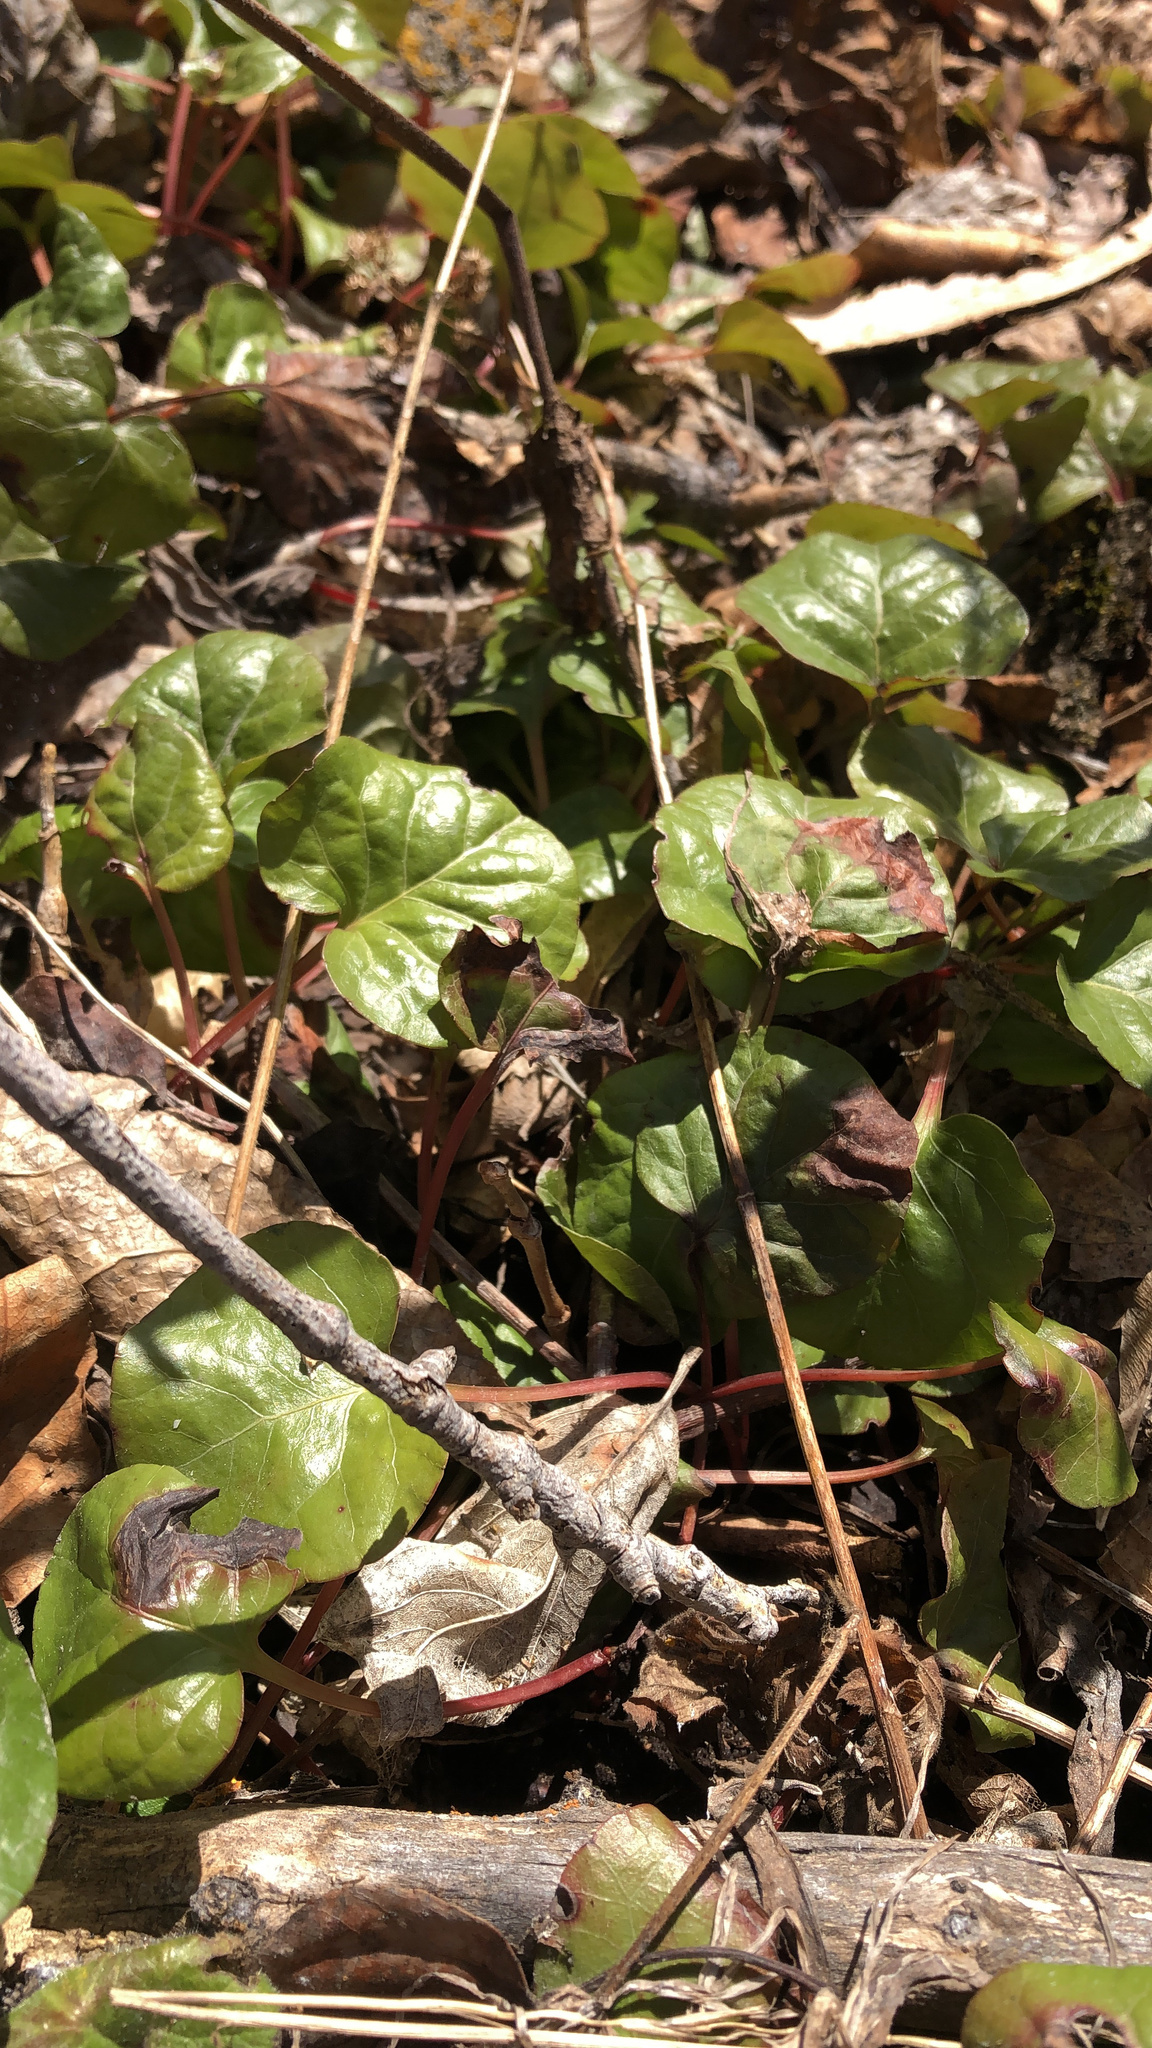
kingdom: Plantae
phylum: Tracheophyta
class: Magnoliopsida
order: Ericales
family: Ericaceae
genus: Pyrola
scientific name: Pyrola asarifolia
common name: Bog wintergreen
